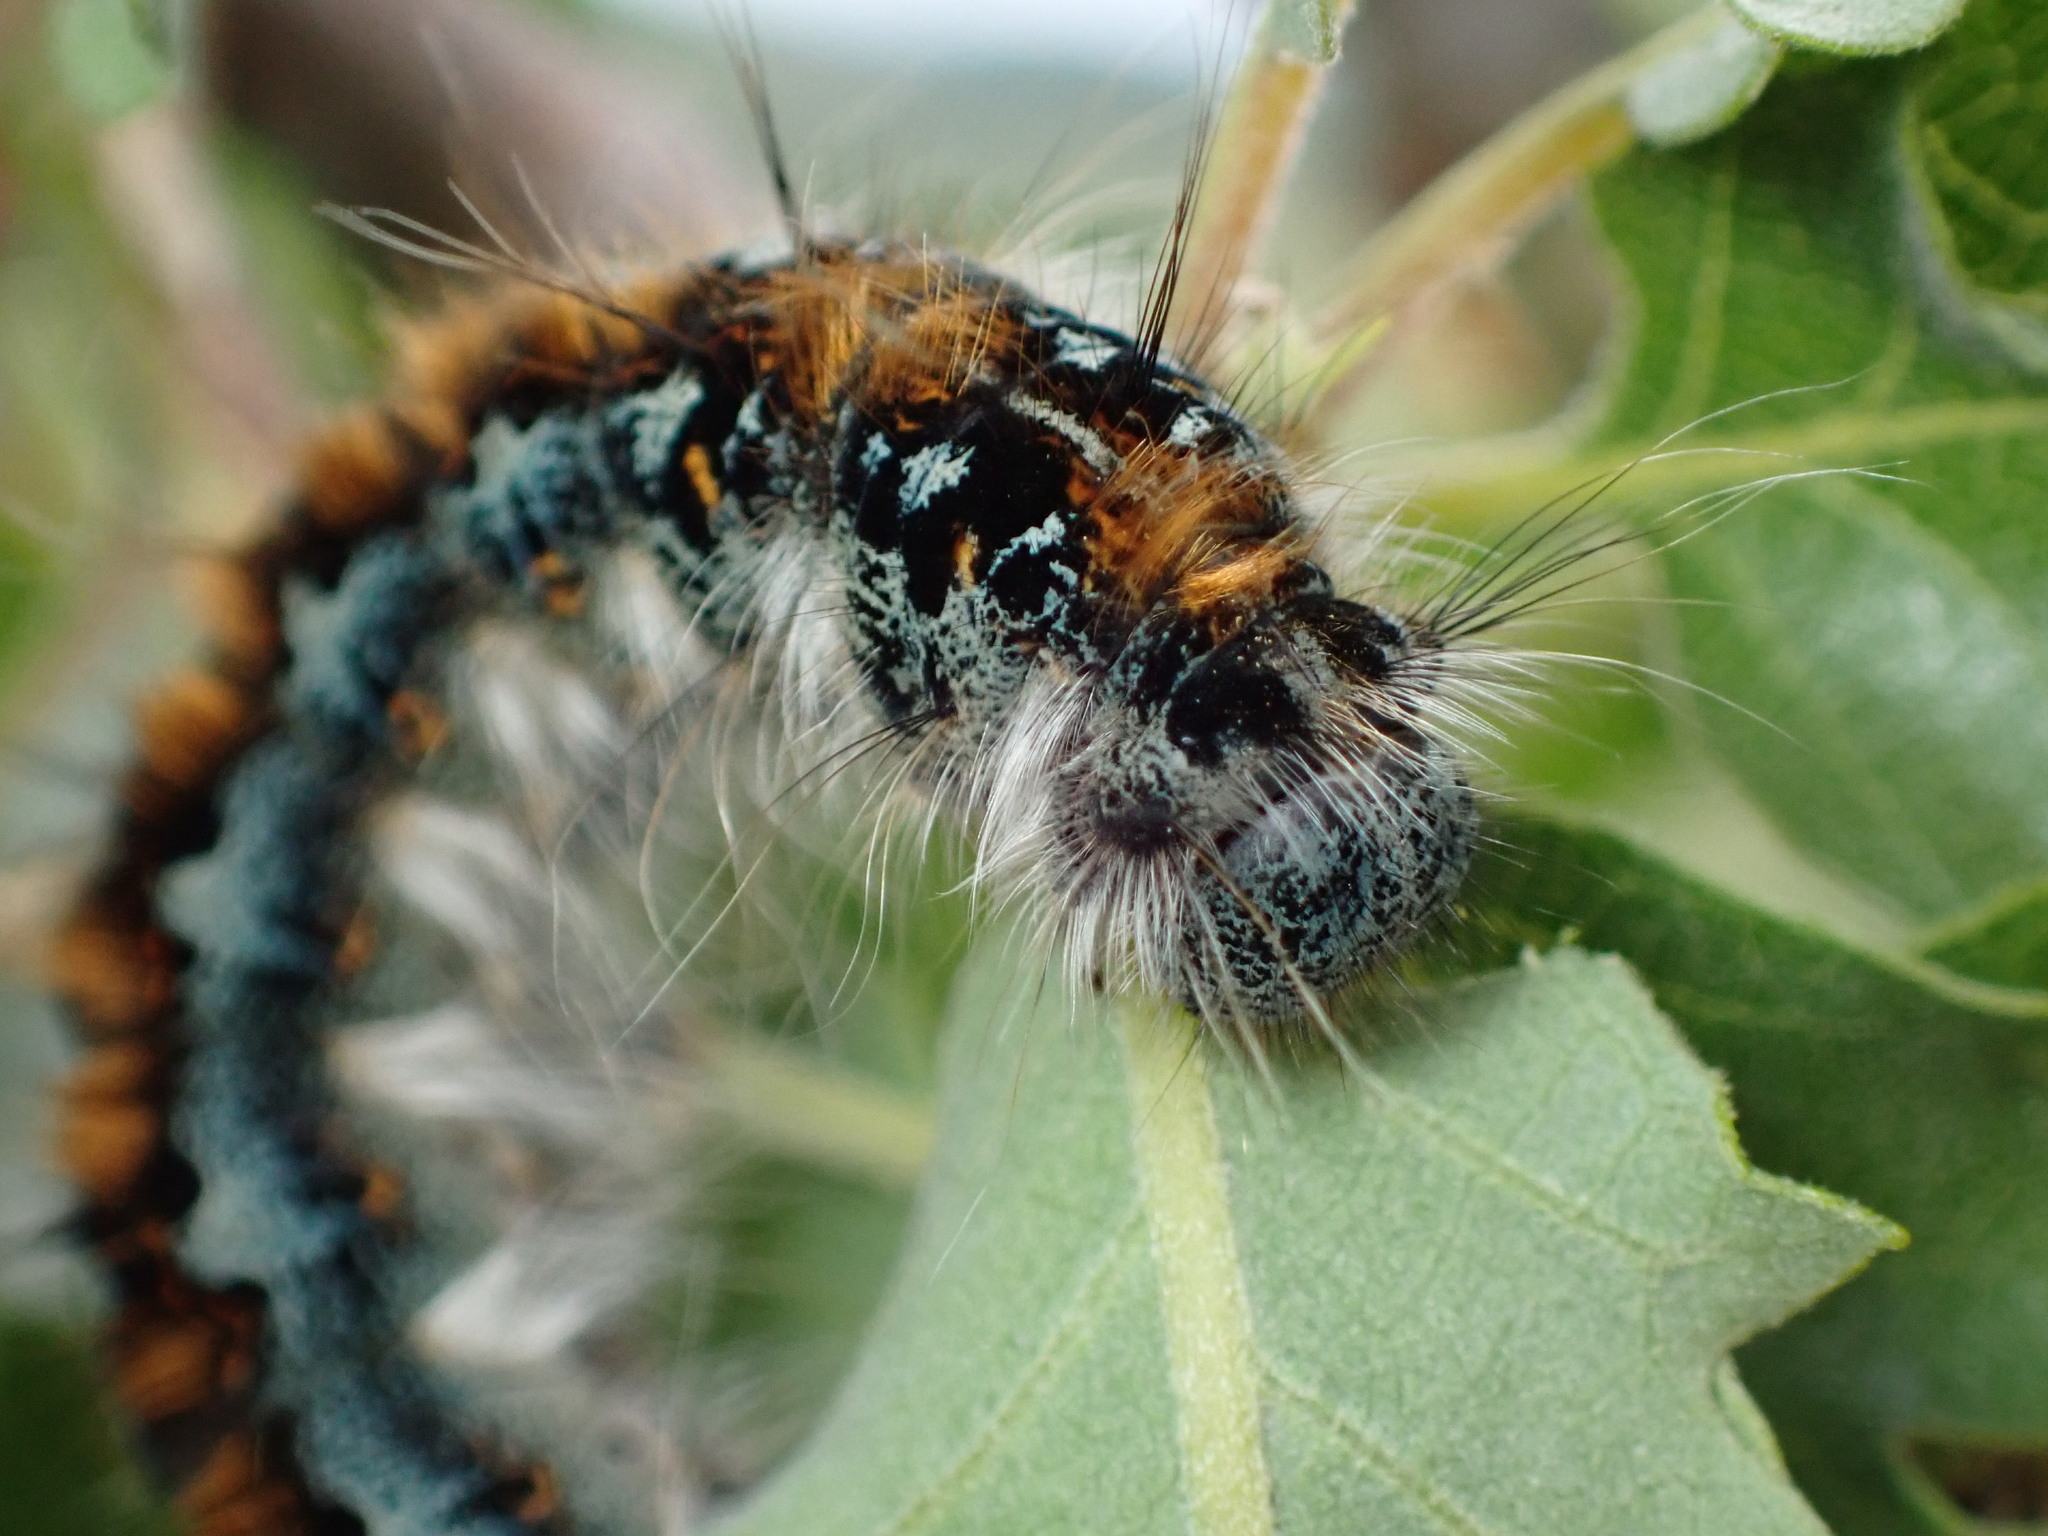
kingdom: Animalia
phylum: Arthropoda
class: Insecta
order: Lepidoptera
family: Lasiocampidae
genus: Malacosoma
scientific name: Malacosoma constricta
